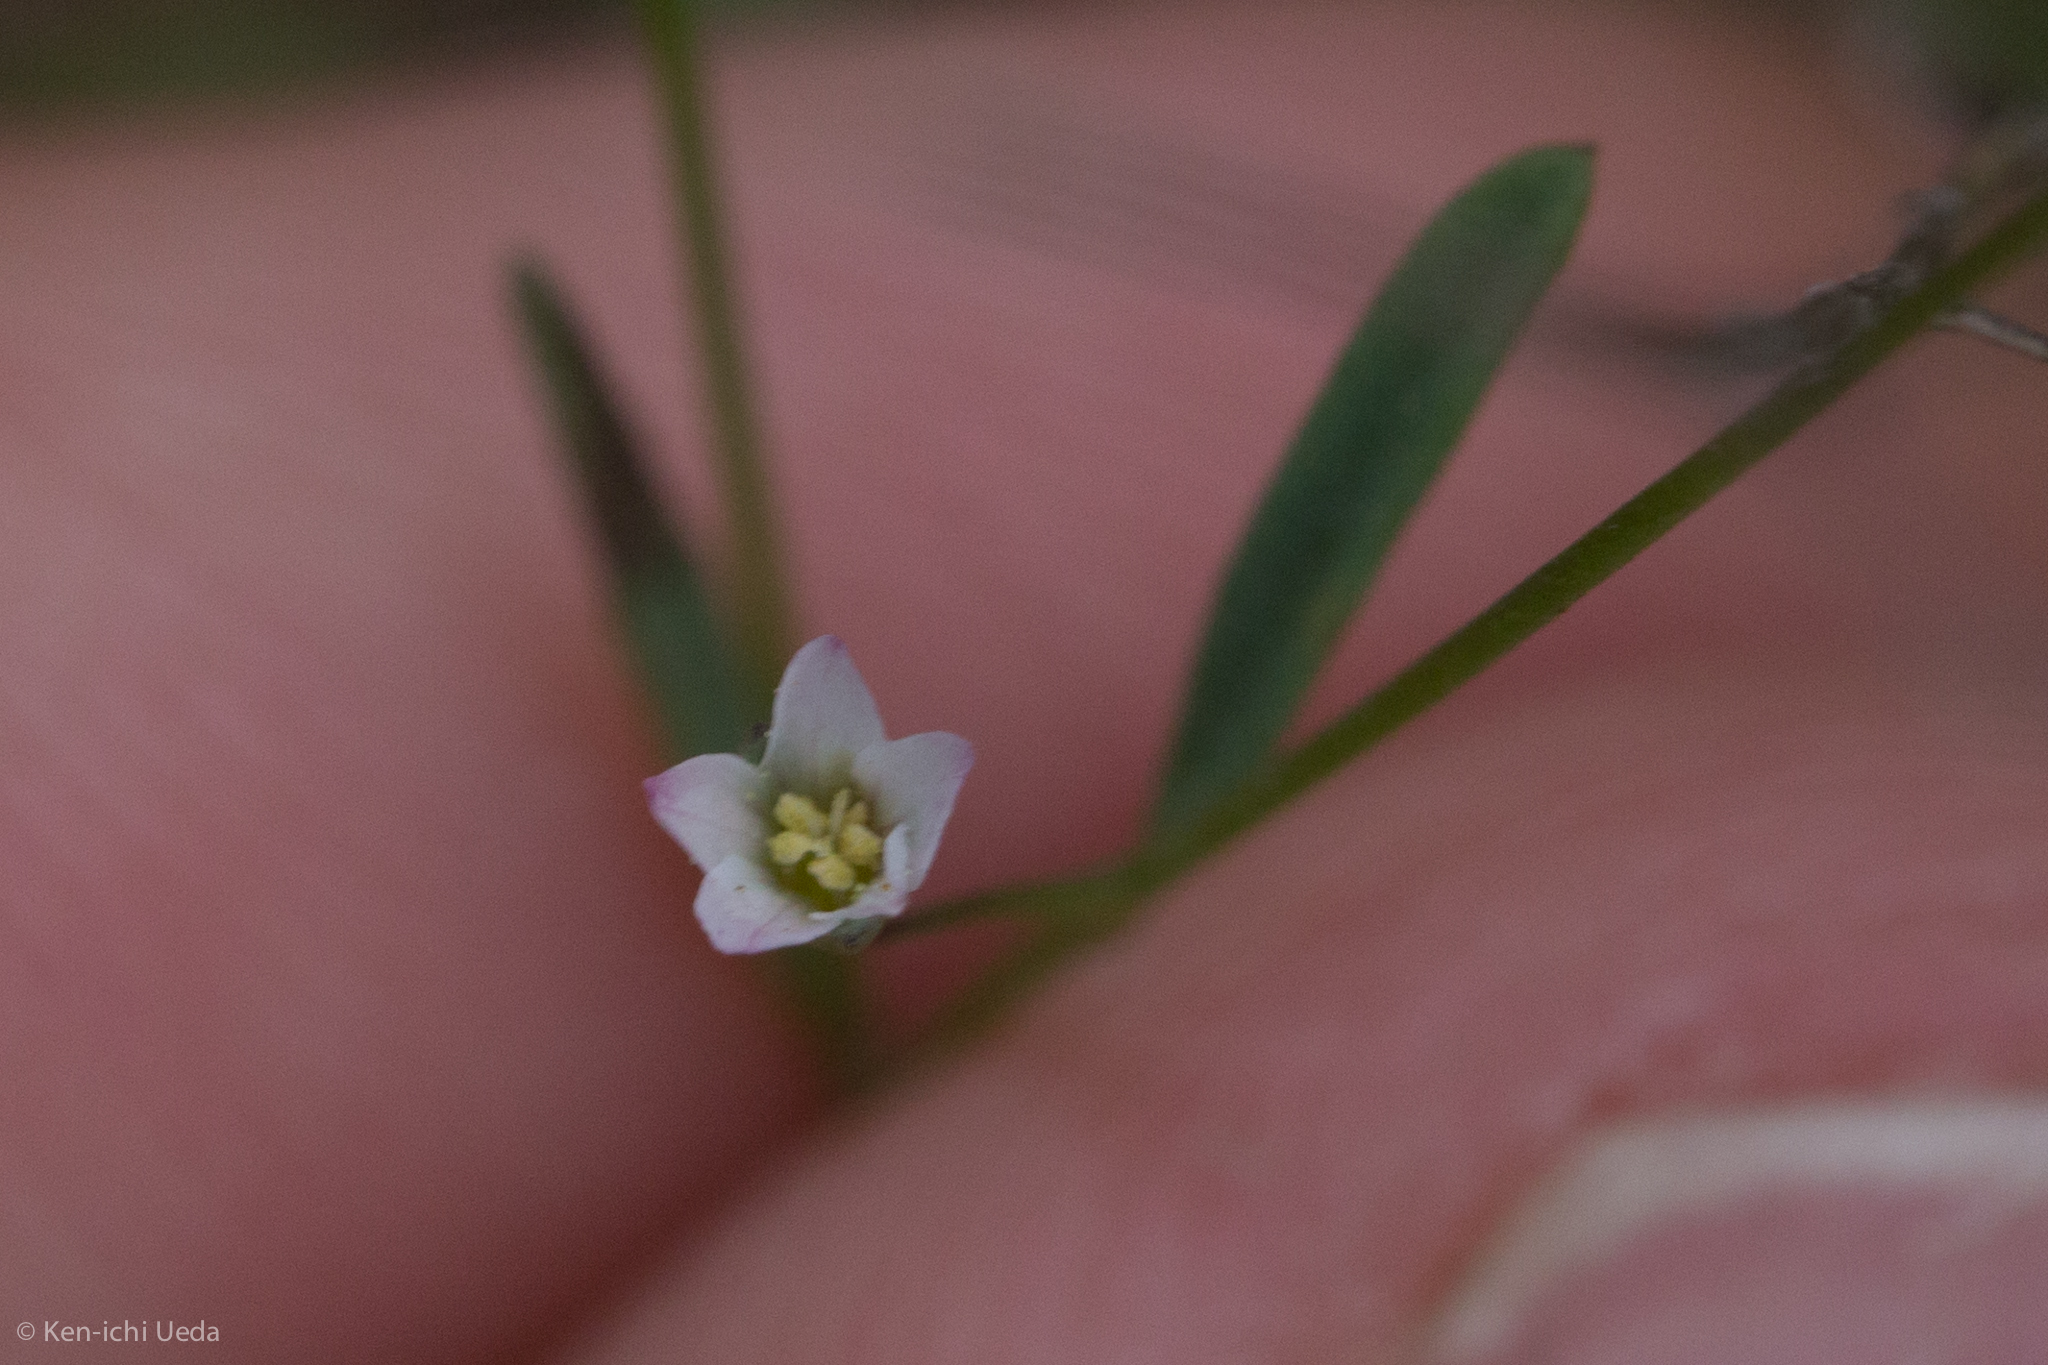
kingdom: Plantae
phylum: Tracheophyta
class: Magnoliopsida
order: Malpighiales
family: Linaceae
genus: Hesperolinon
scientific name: Hesperolinon micranthum
